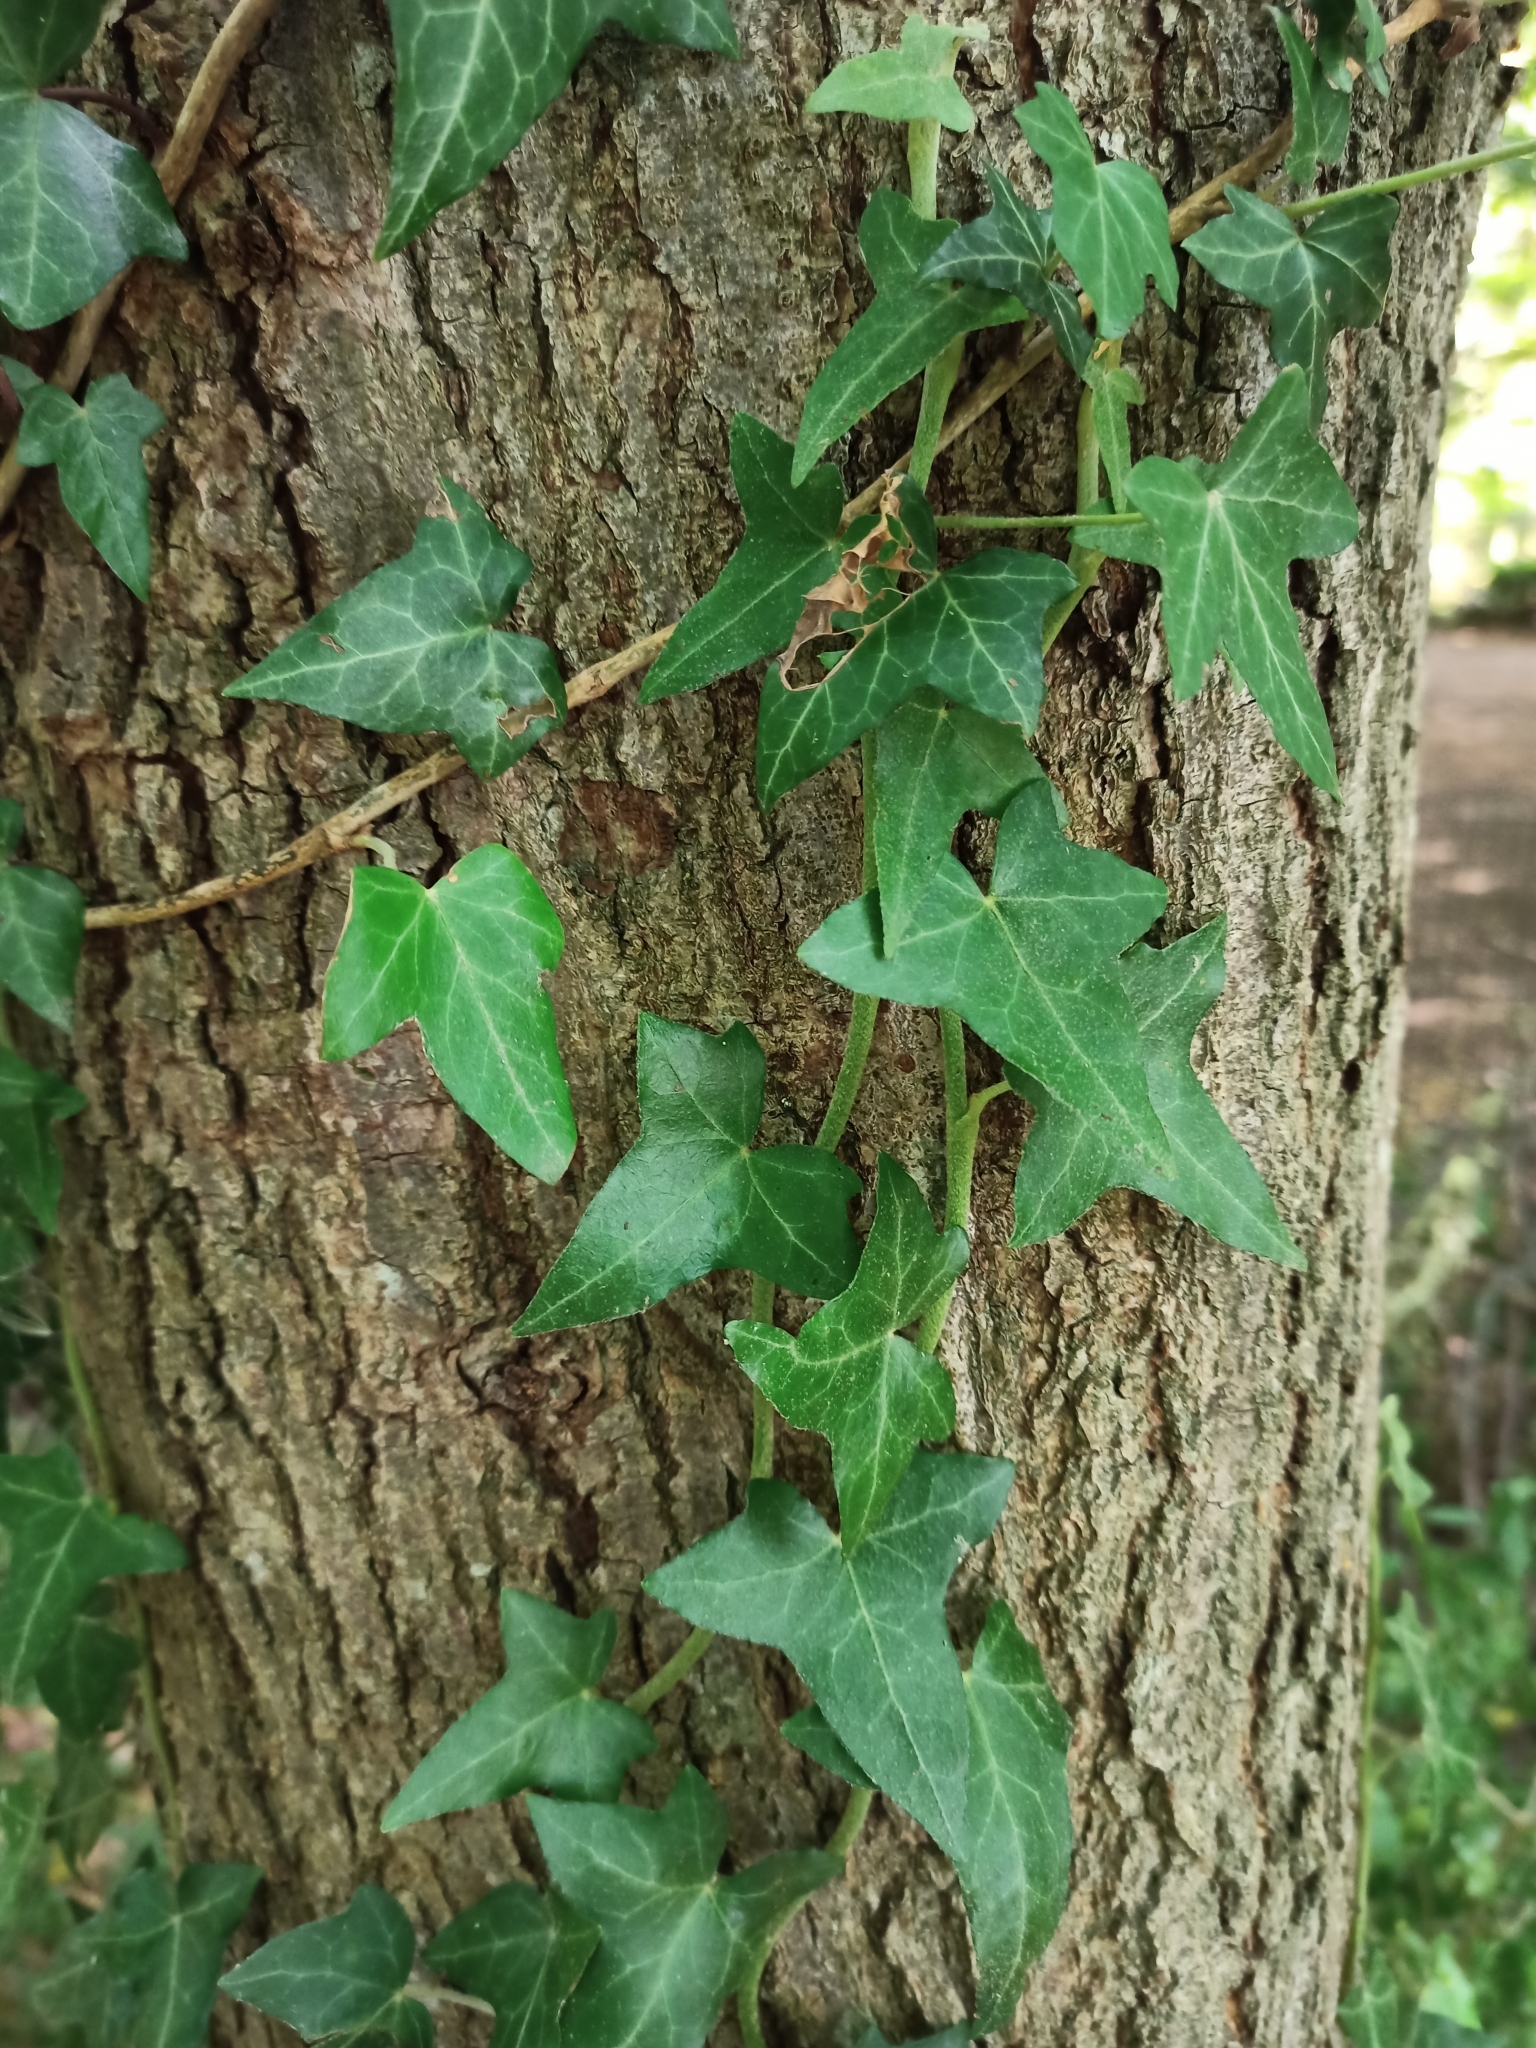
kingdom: Plantae
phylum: Tracheophyta
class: Magnoliopsida
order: Apiales
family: Araliaceae
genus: Hedera
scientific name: Hedera helix
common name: Ivy
